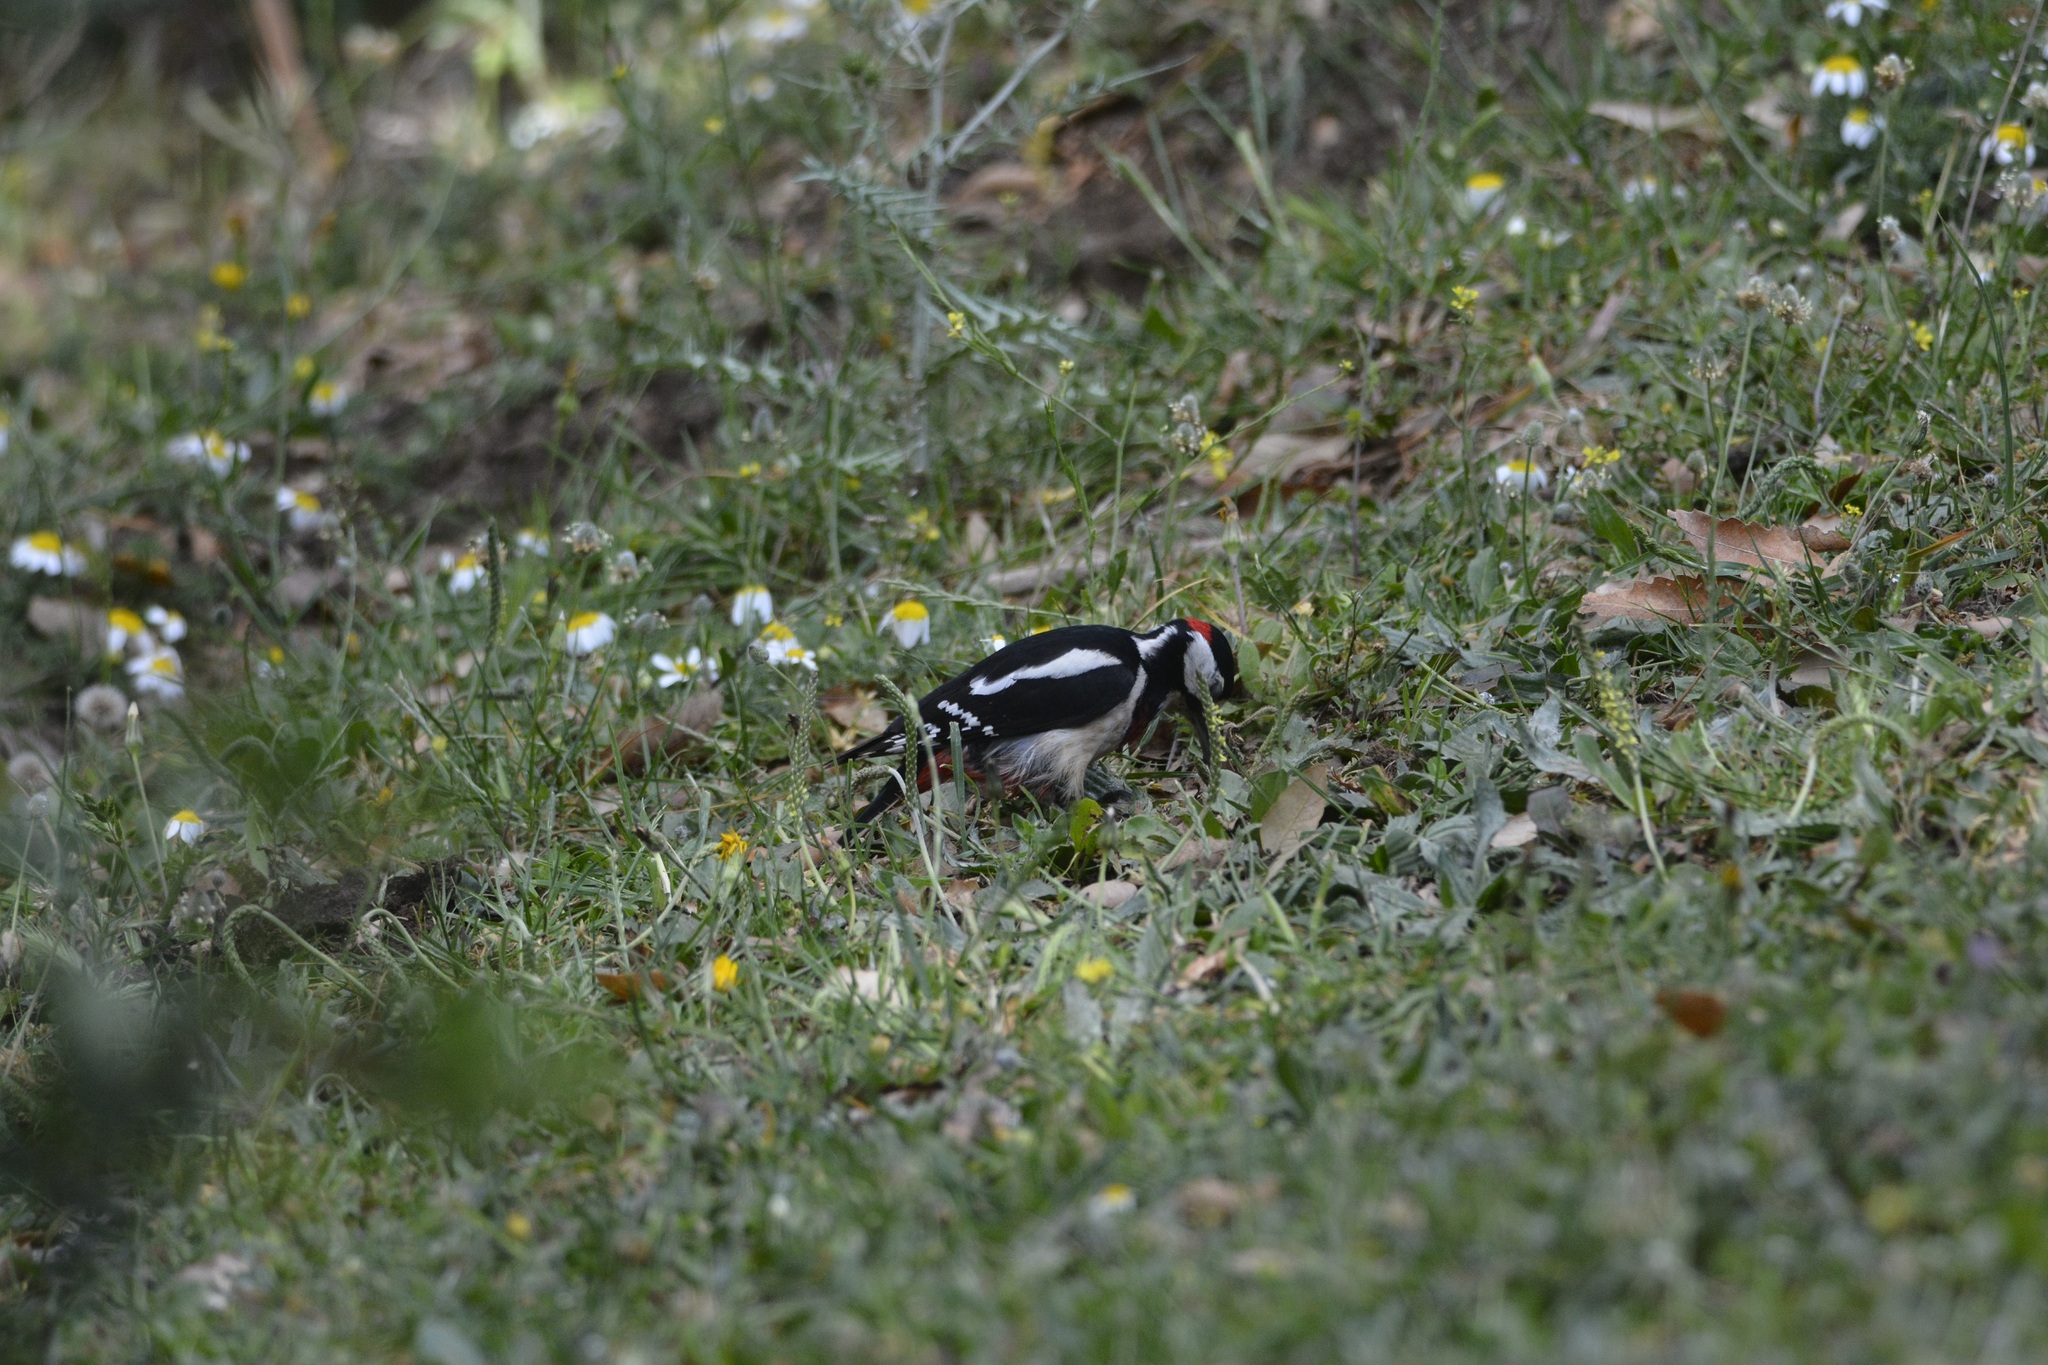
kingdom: Animalia
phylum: Chordata
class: Aves
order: Piciformes
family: Picidae
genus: Dendrocopos
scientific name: Dendrocopos major
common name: Great spotted woodpecker
